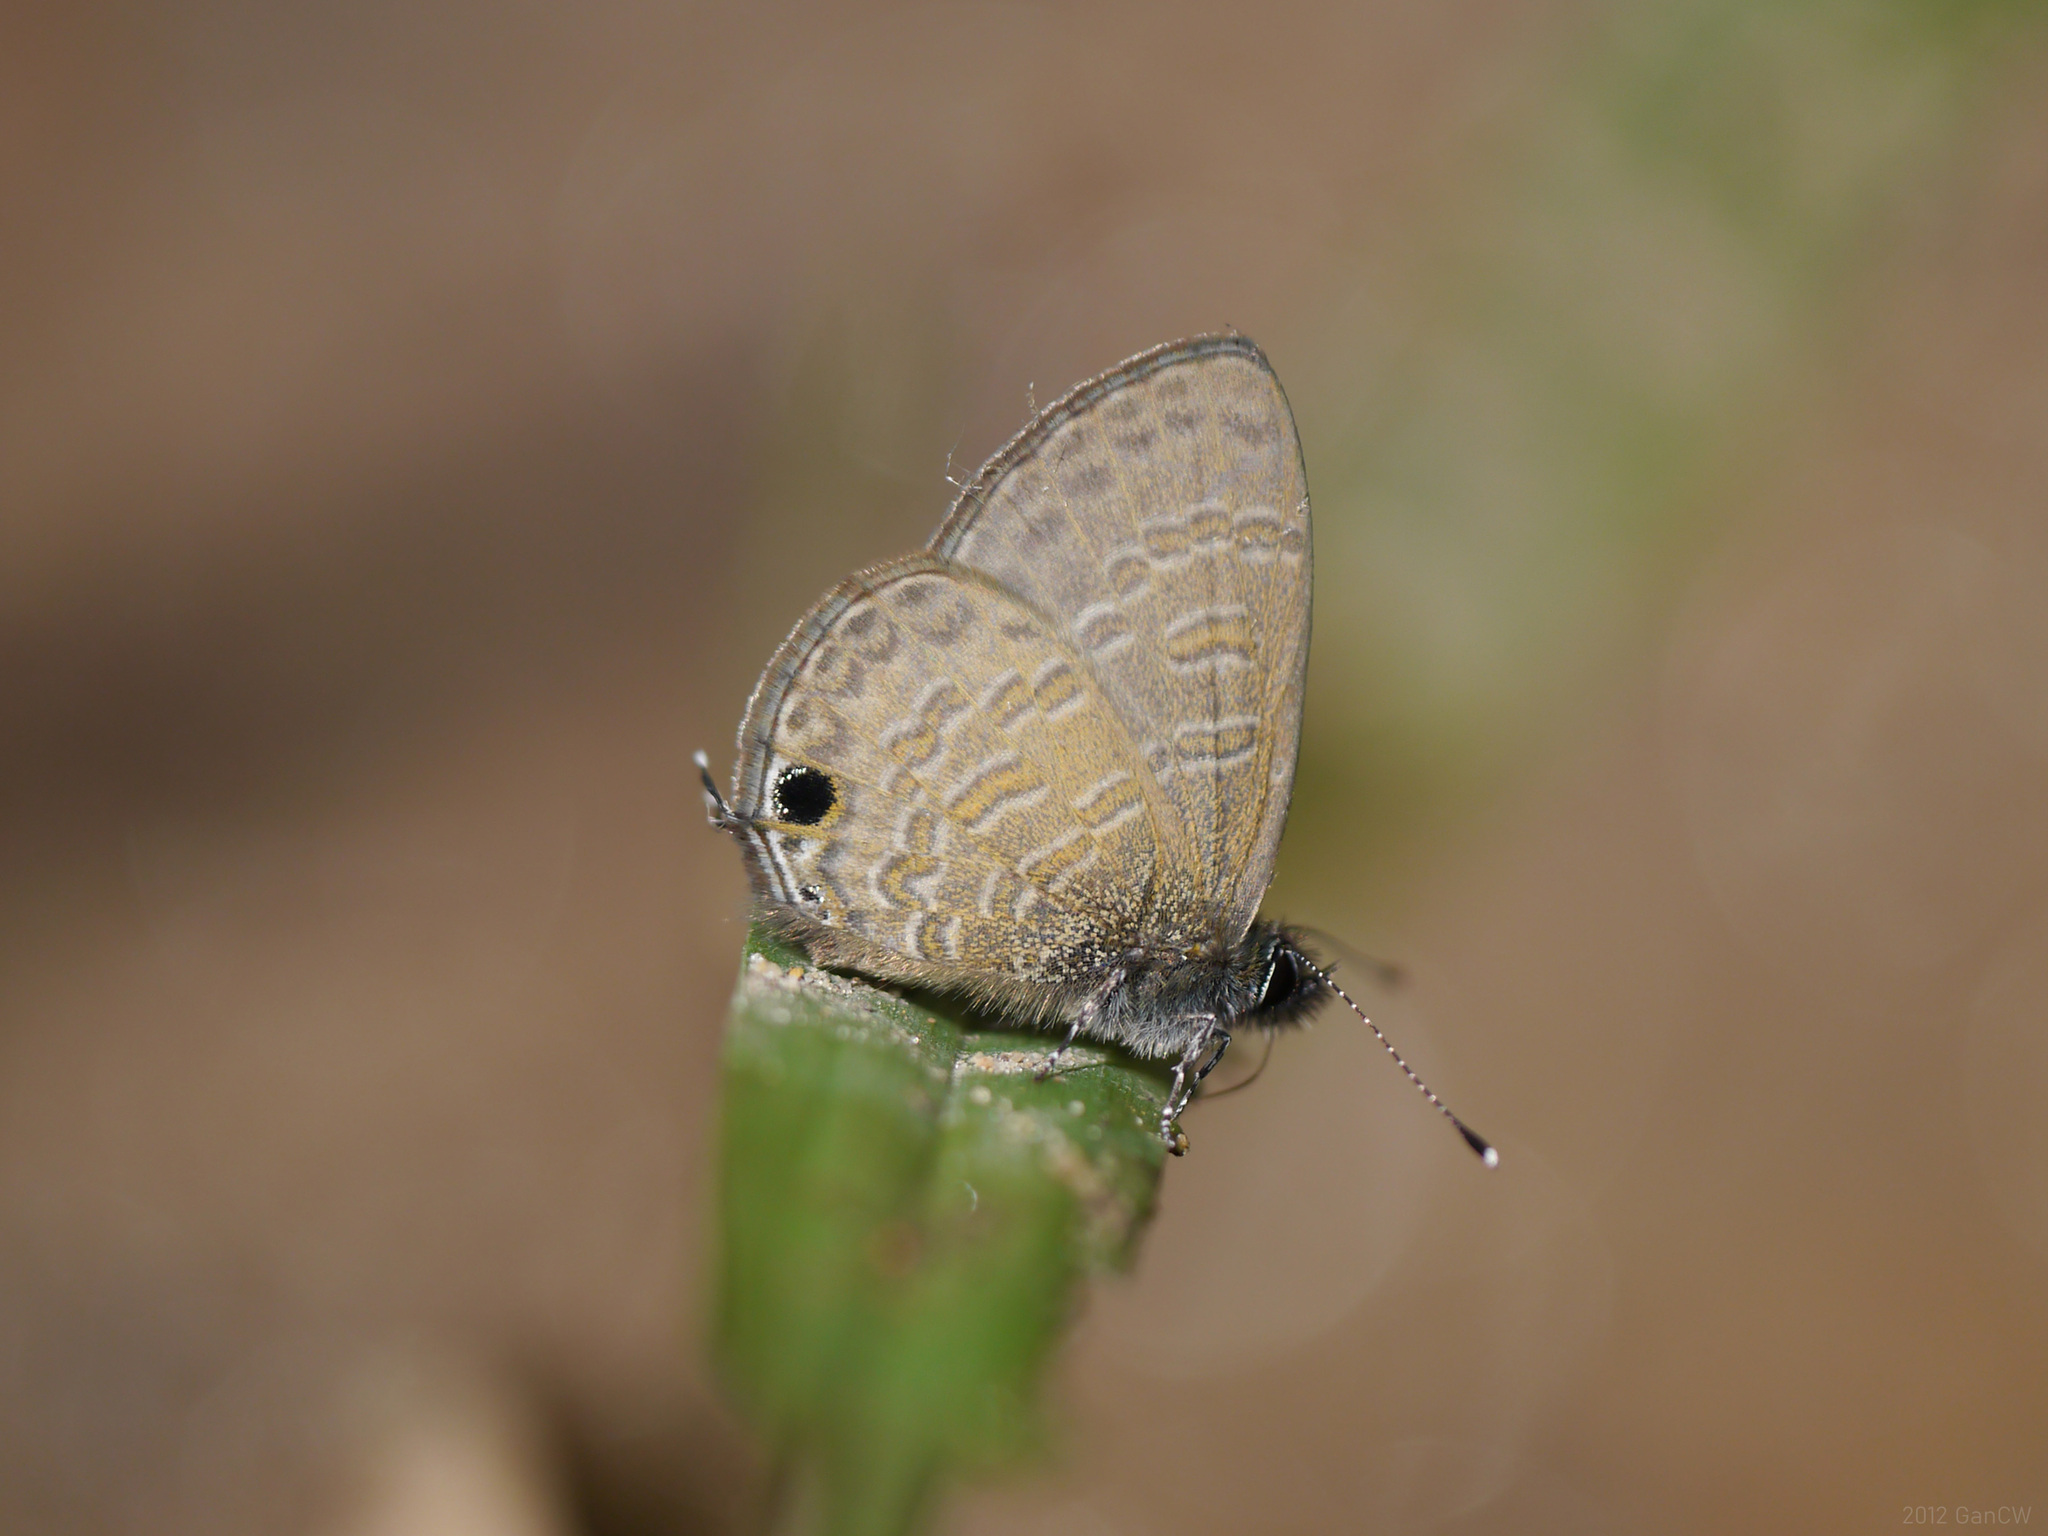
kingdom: Animalia
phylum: Arthropoda
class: Insecta
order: Lepidoptera
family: Lycaenidae
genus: Prosotas
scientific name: Prosotas nora
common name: Common line blue
